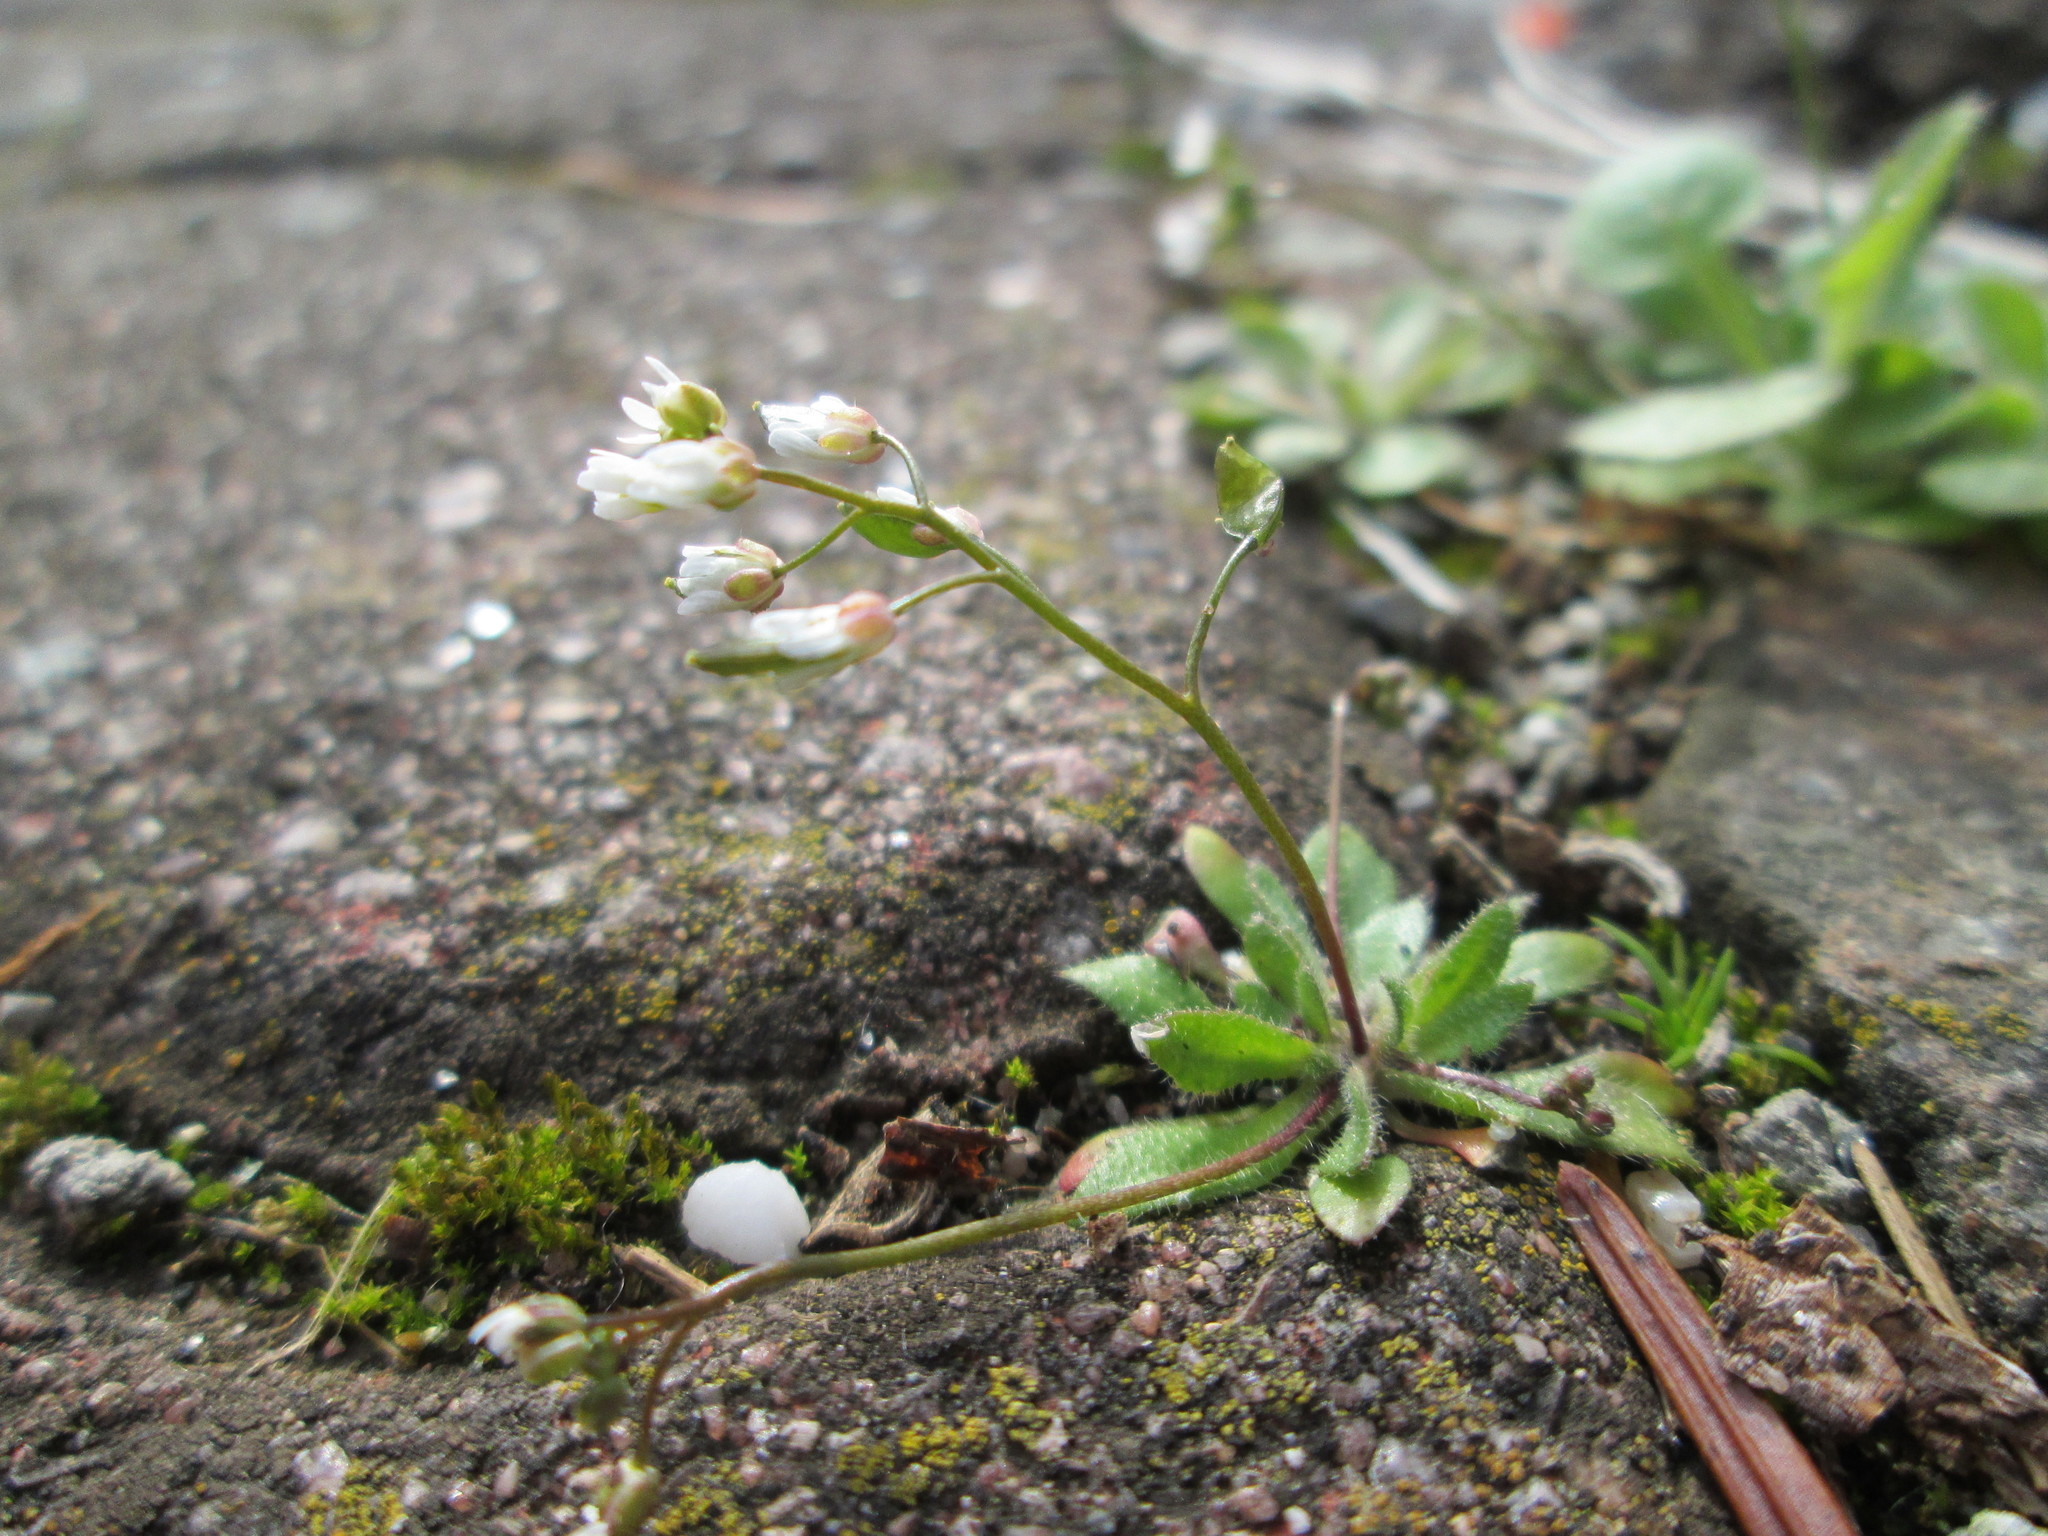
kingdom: Plantae
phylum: Tracheophyta
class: Magnoliopsida
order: Brassicales
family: Brassicaceae
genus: Draba
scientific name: Draba verna
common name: Spring draba
